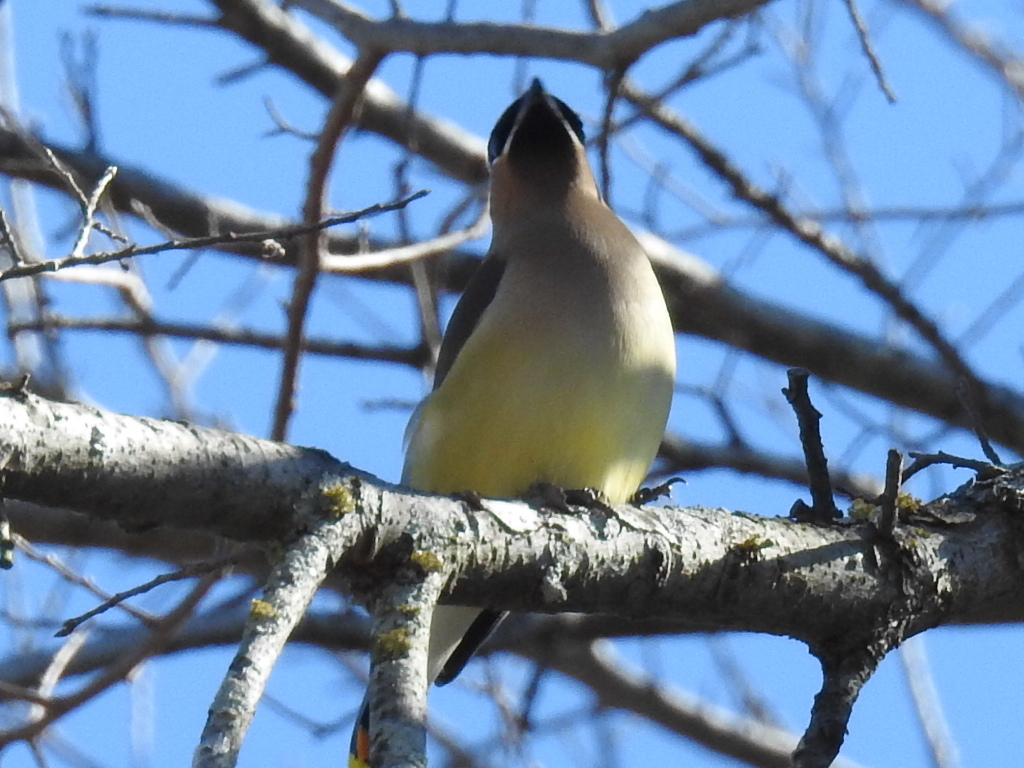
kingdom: Animalia
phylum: Chordata
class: Aves
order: Passeriformes
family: Bombycillidae
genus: Bombycilla
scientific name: Bombycilla cedrorum
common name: Cedar waxwing
